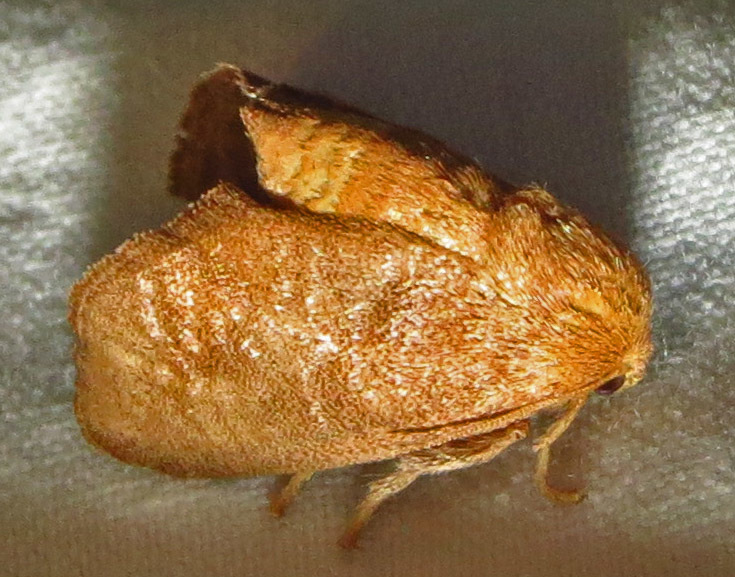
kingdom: Animalia
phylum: Arthropoda
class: Insecta
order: Lepidoptera
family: Limacodidae
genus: Isa
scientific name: Isa textula
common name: Crowned slug moth
